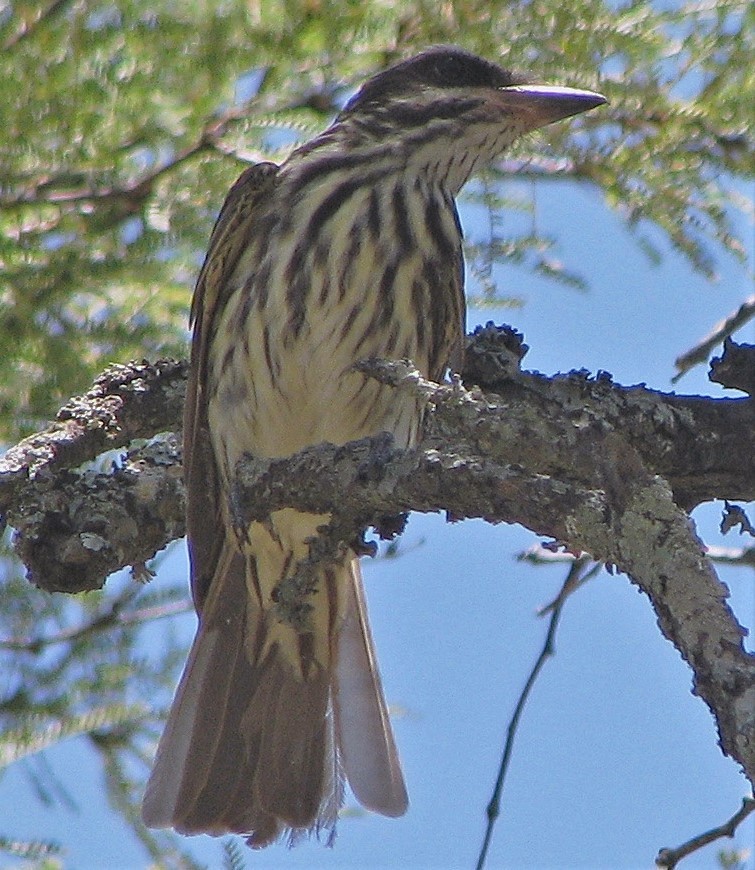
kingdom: Animalia
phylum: Chordata
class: Aves
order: Passeriformes
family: Tyrannidae
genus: Myiodynastes
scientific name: Myiodynastes maculatus
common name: Streaked flycatcher
